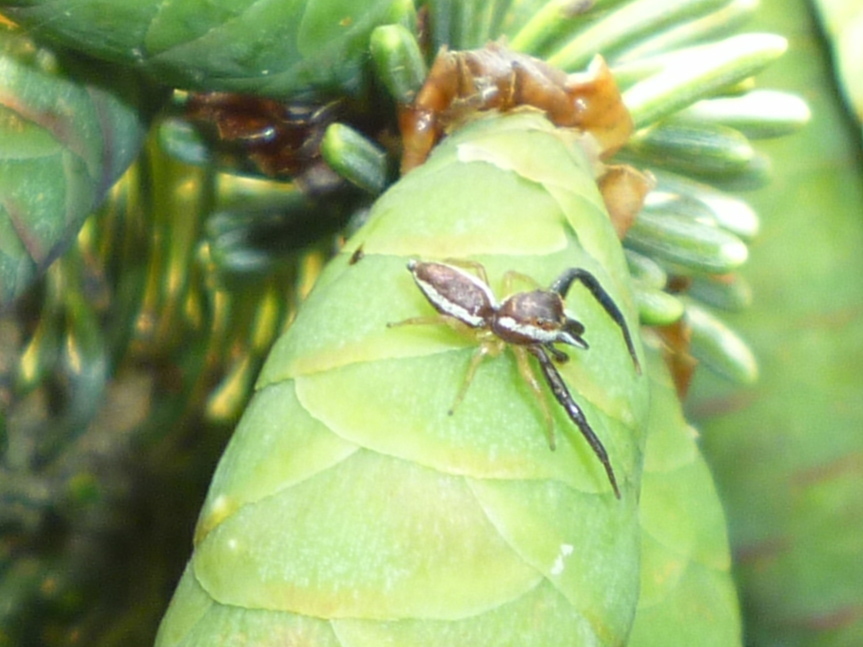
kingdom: Animalia
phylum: Arthropoda
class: Arachnida
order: Araneae
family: Salticidae
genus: Hentzia
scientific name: Hentzia palmarum
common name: Common hentz jumping spider
